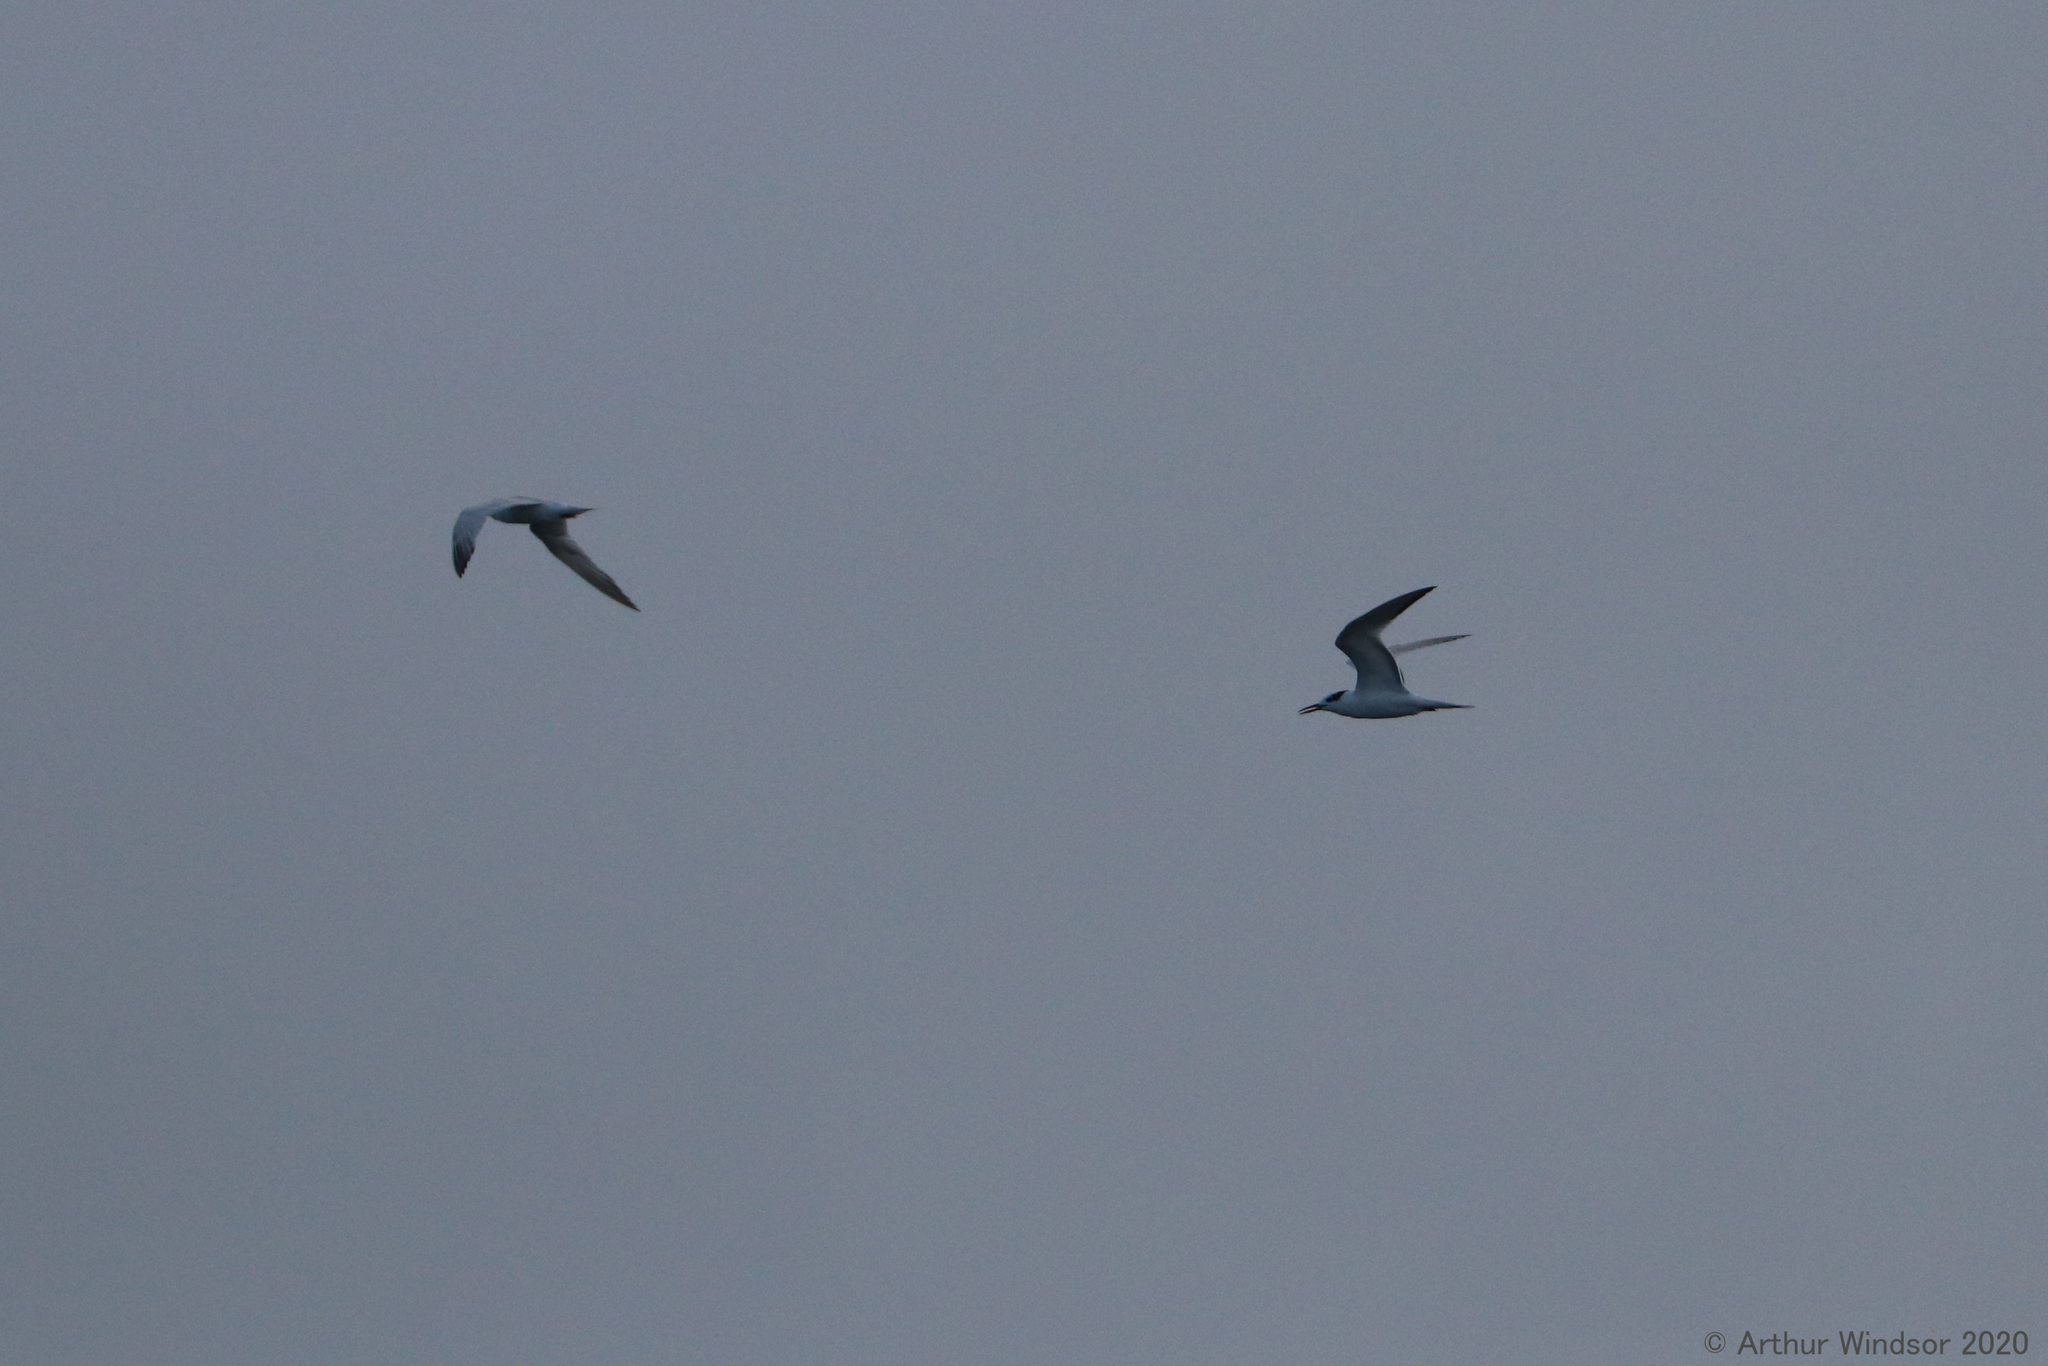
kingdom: Animalia
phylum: Chordata
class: Aves
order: Charadriiformes
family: Laridae
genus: Thalasseus
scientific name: Thalasseus maximus
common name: Royal tern
